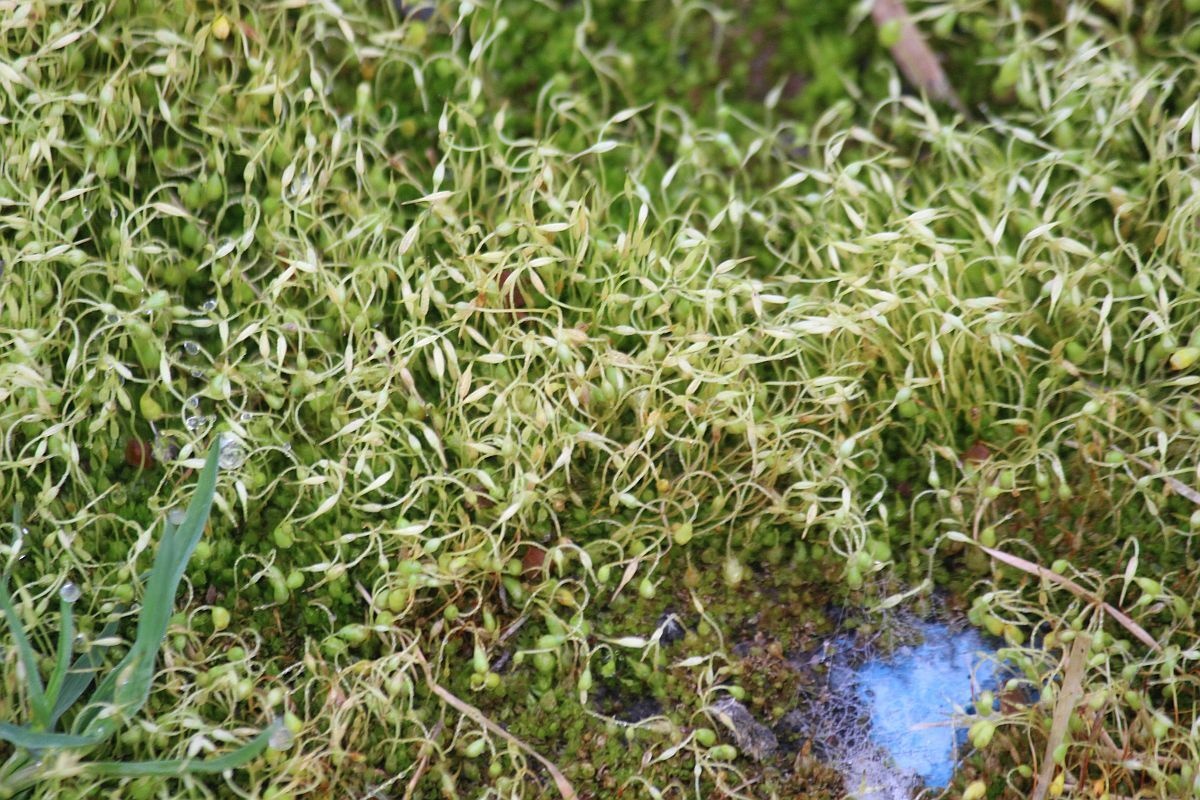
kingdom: Plantae
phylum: Bryophyta
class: Bryopsida
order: Funariales
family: Funariaceae
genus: Funaria
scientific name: Funaria hygrometrica
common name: Common cord moss
